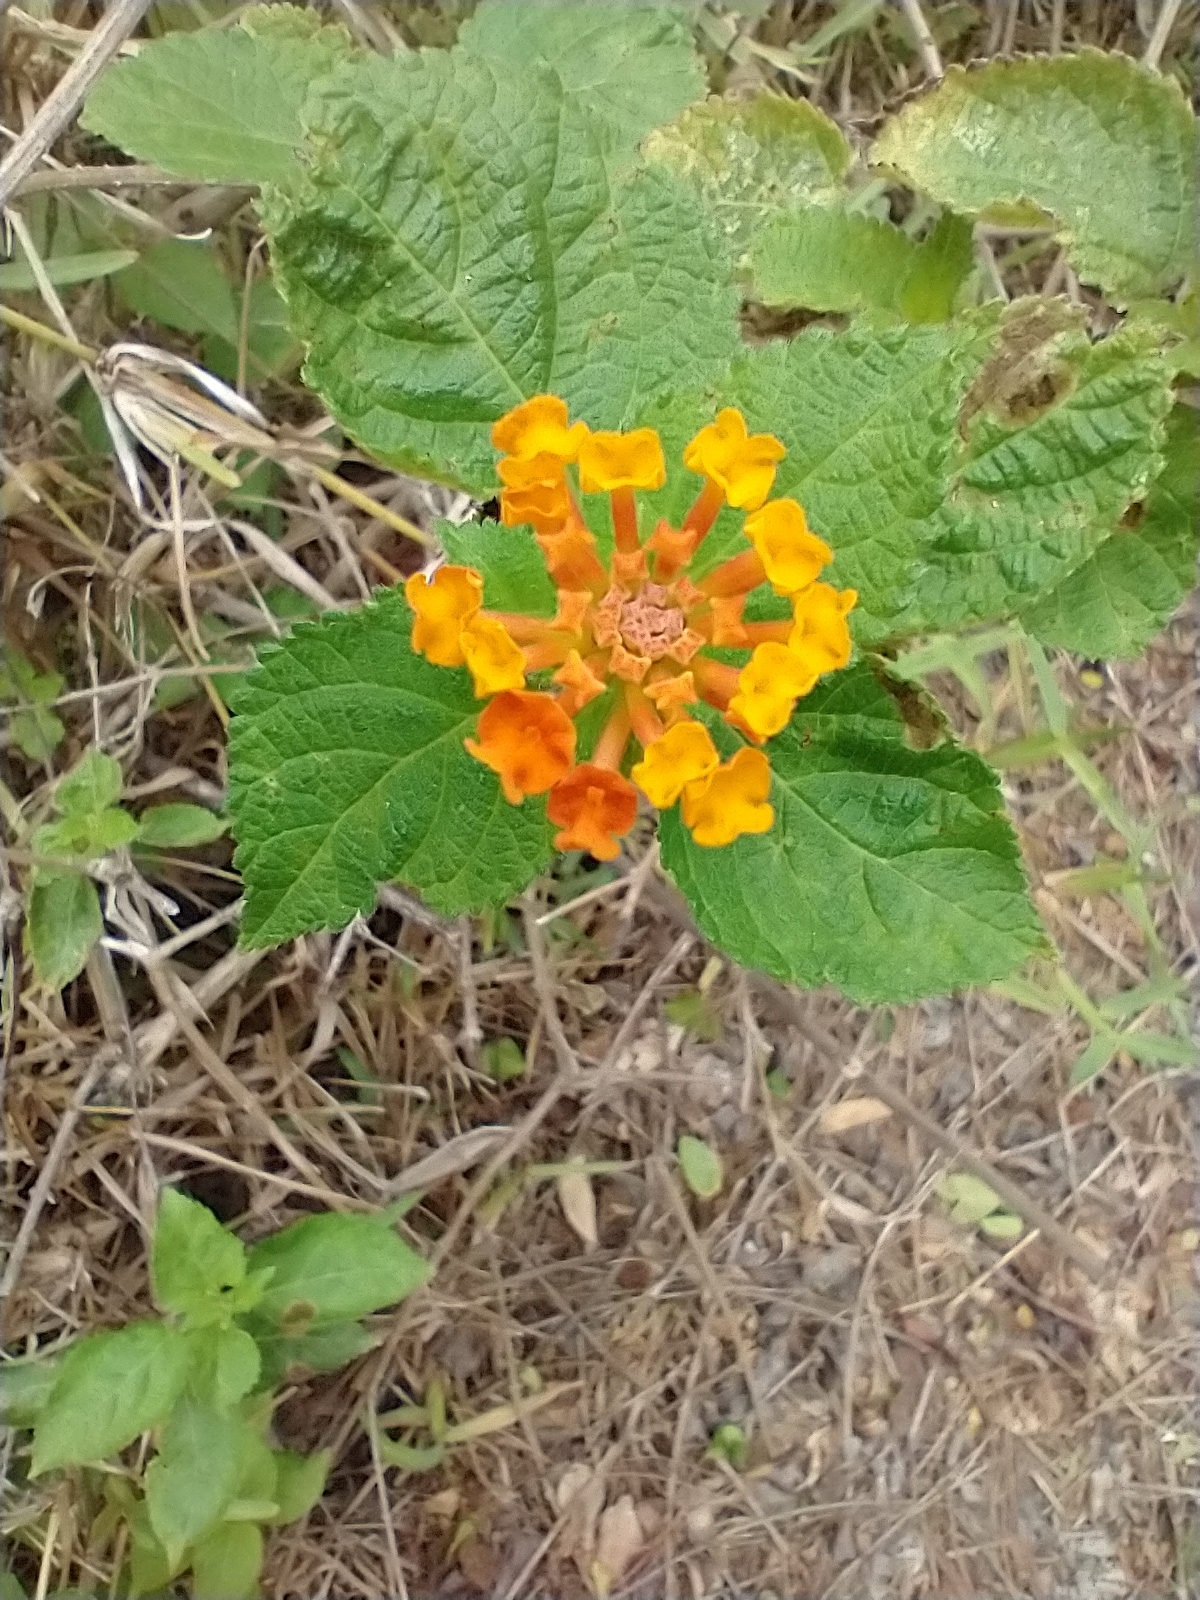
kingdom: Plantae
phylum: Tracheophyta
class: Magnoliopsida
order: Lamiales
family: Verbenaceae
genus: Lantana
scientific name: Lantana camara
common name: Lantana
